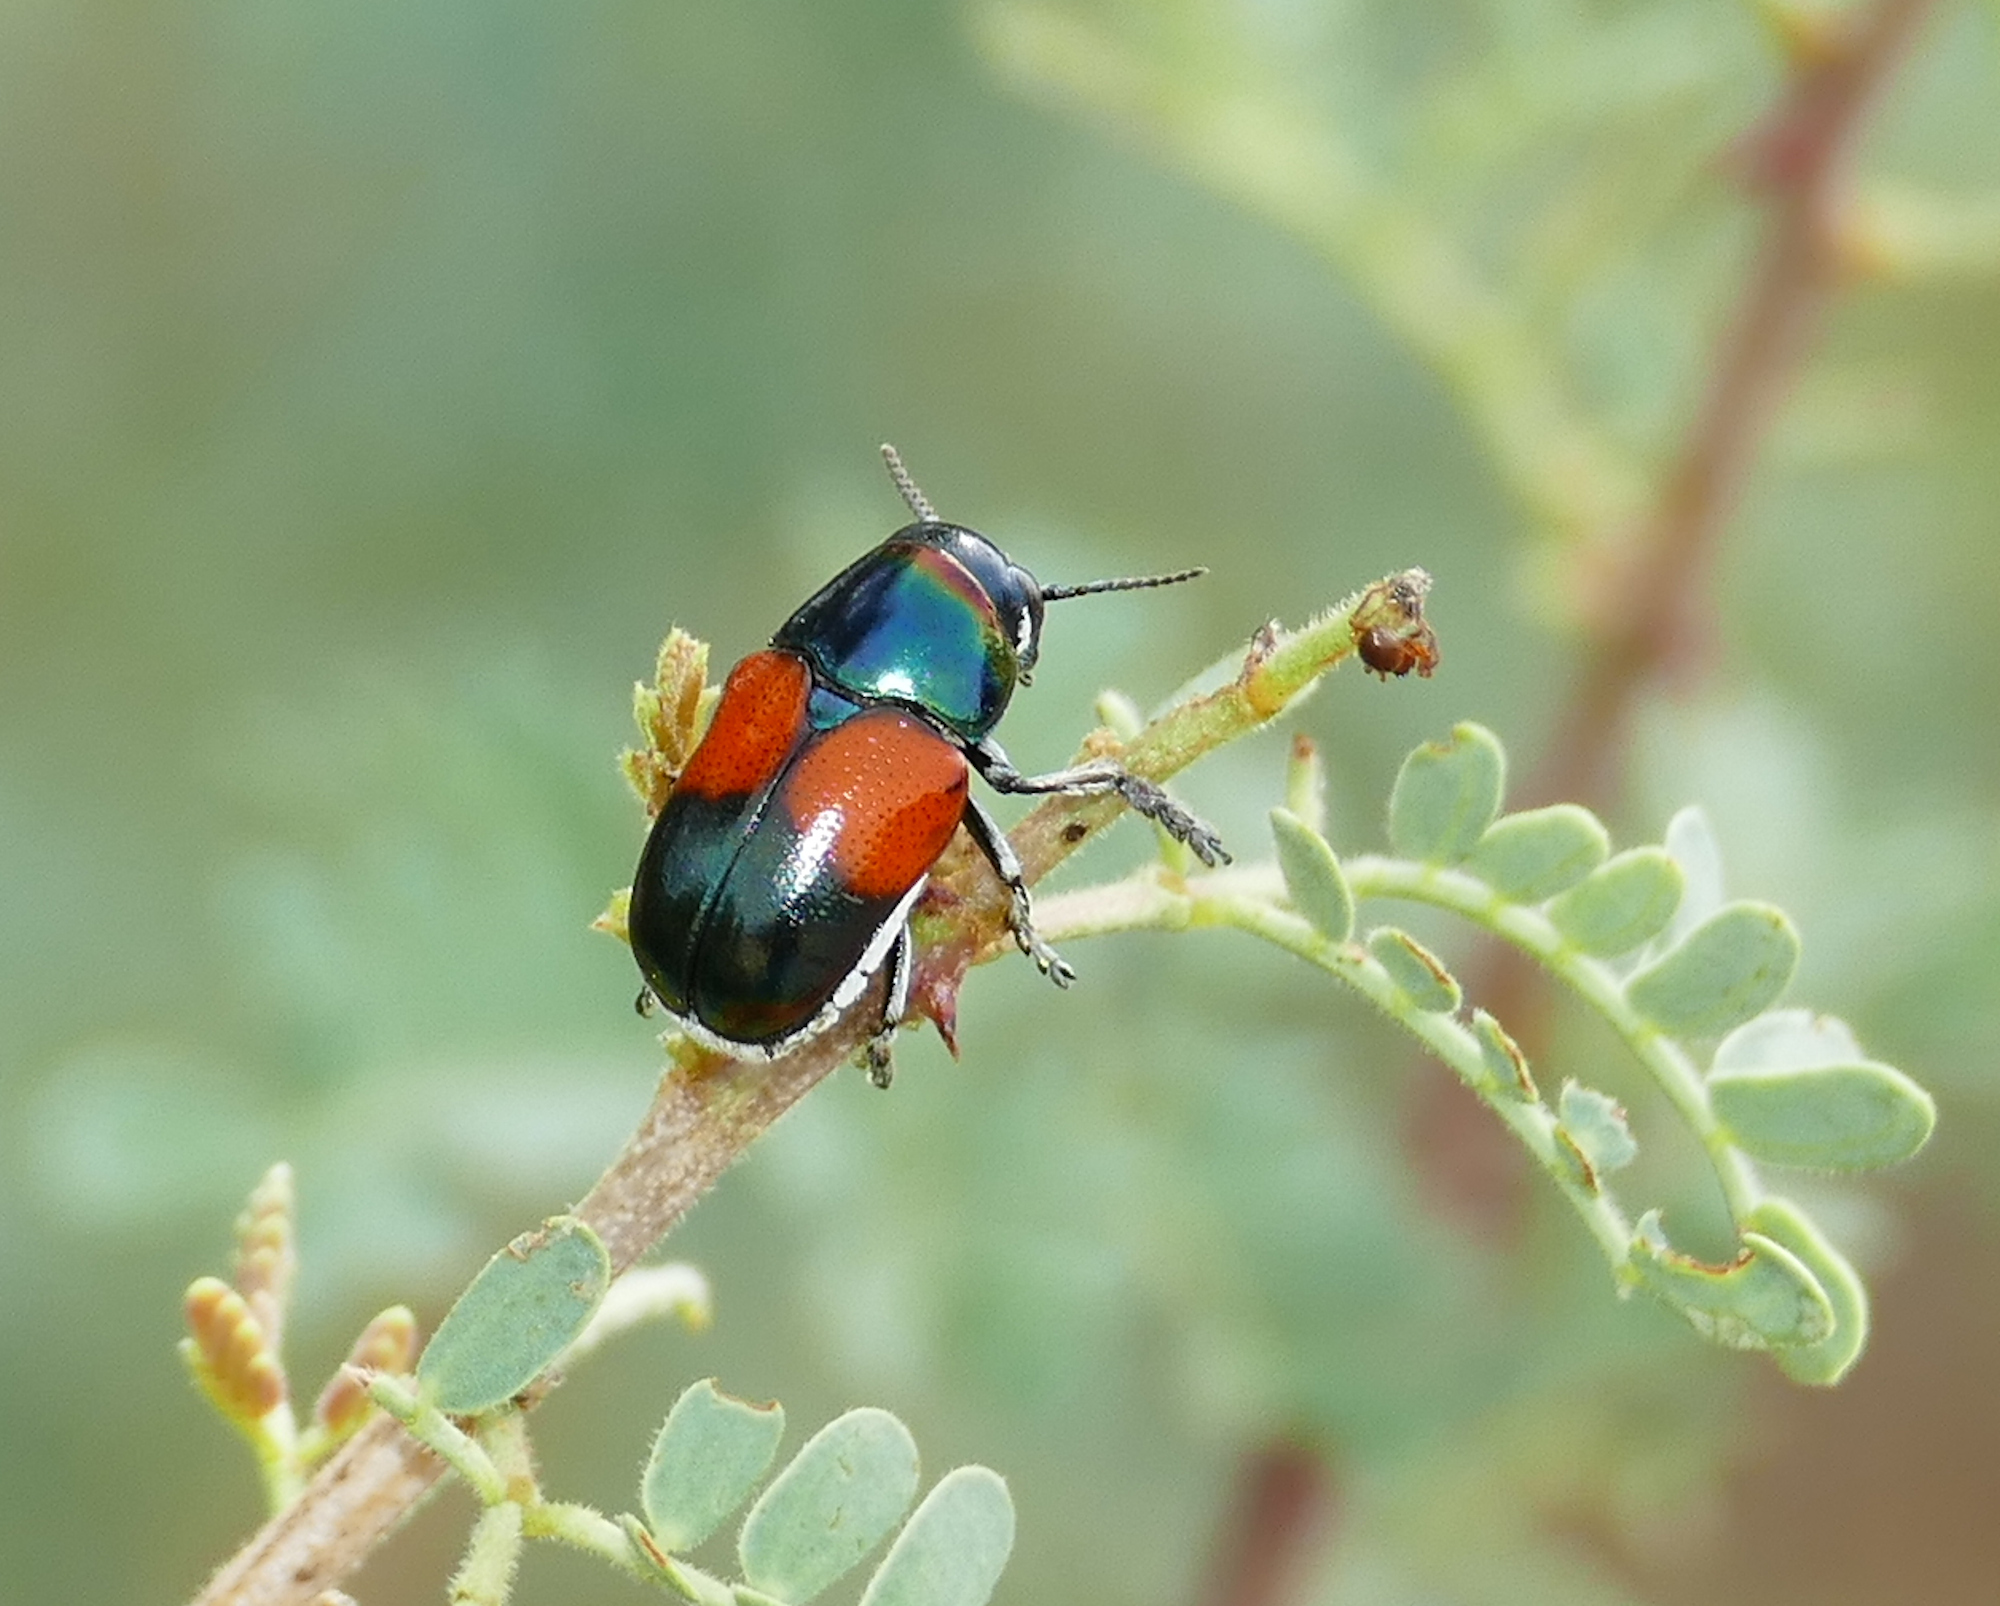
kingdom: Animalia
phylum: Arthropoda
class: Insecta
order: Coleoptera
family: Chrysomelidae
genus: Megalostomis
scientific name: Megalostomis pyropyga
